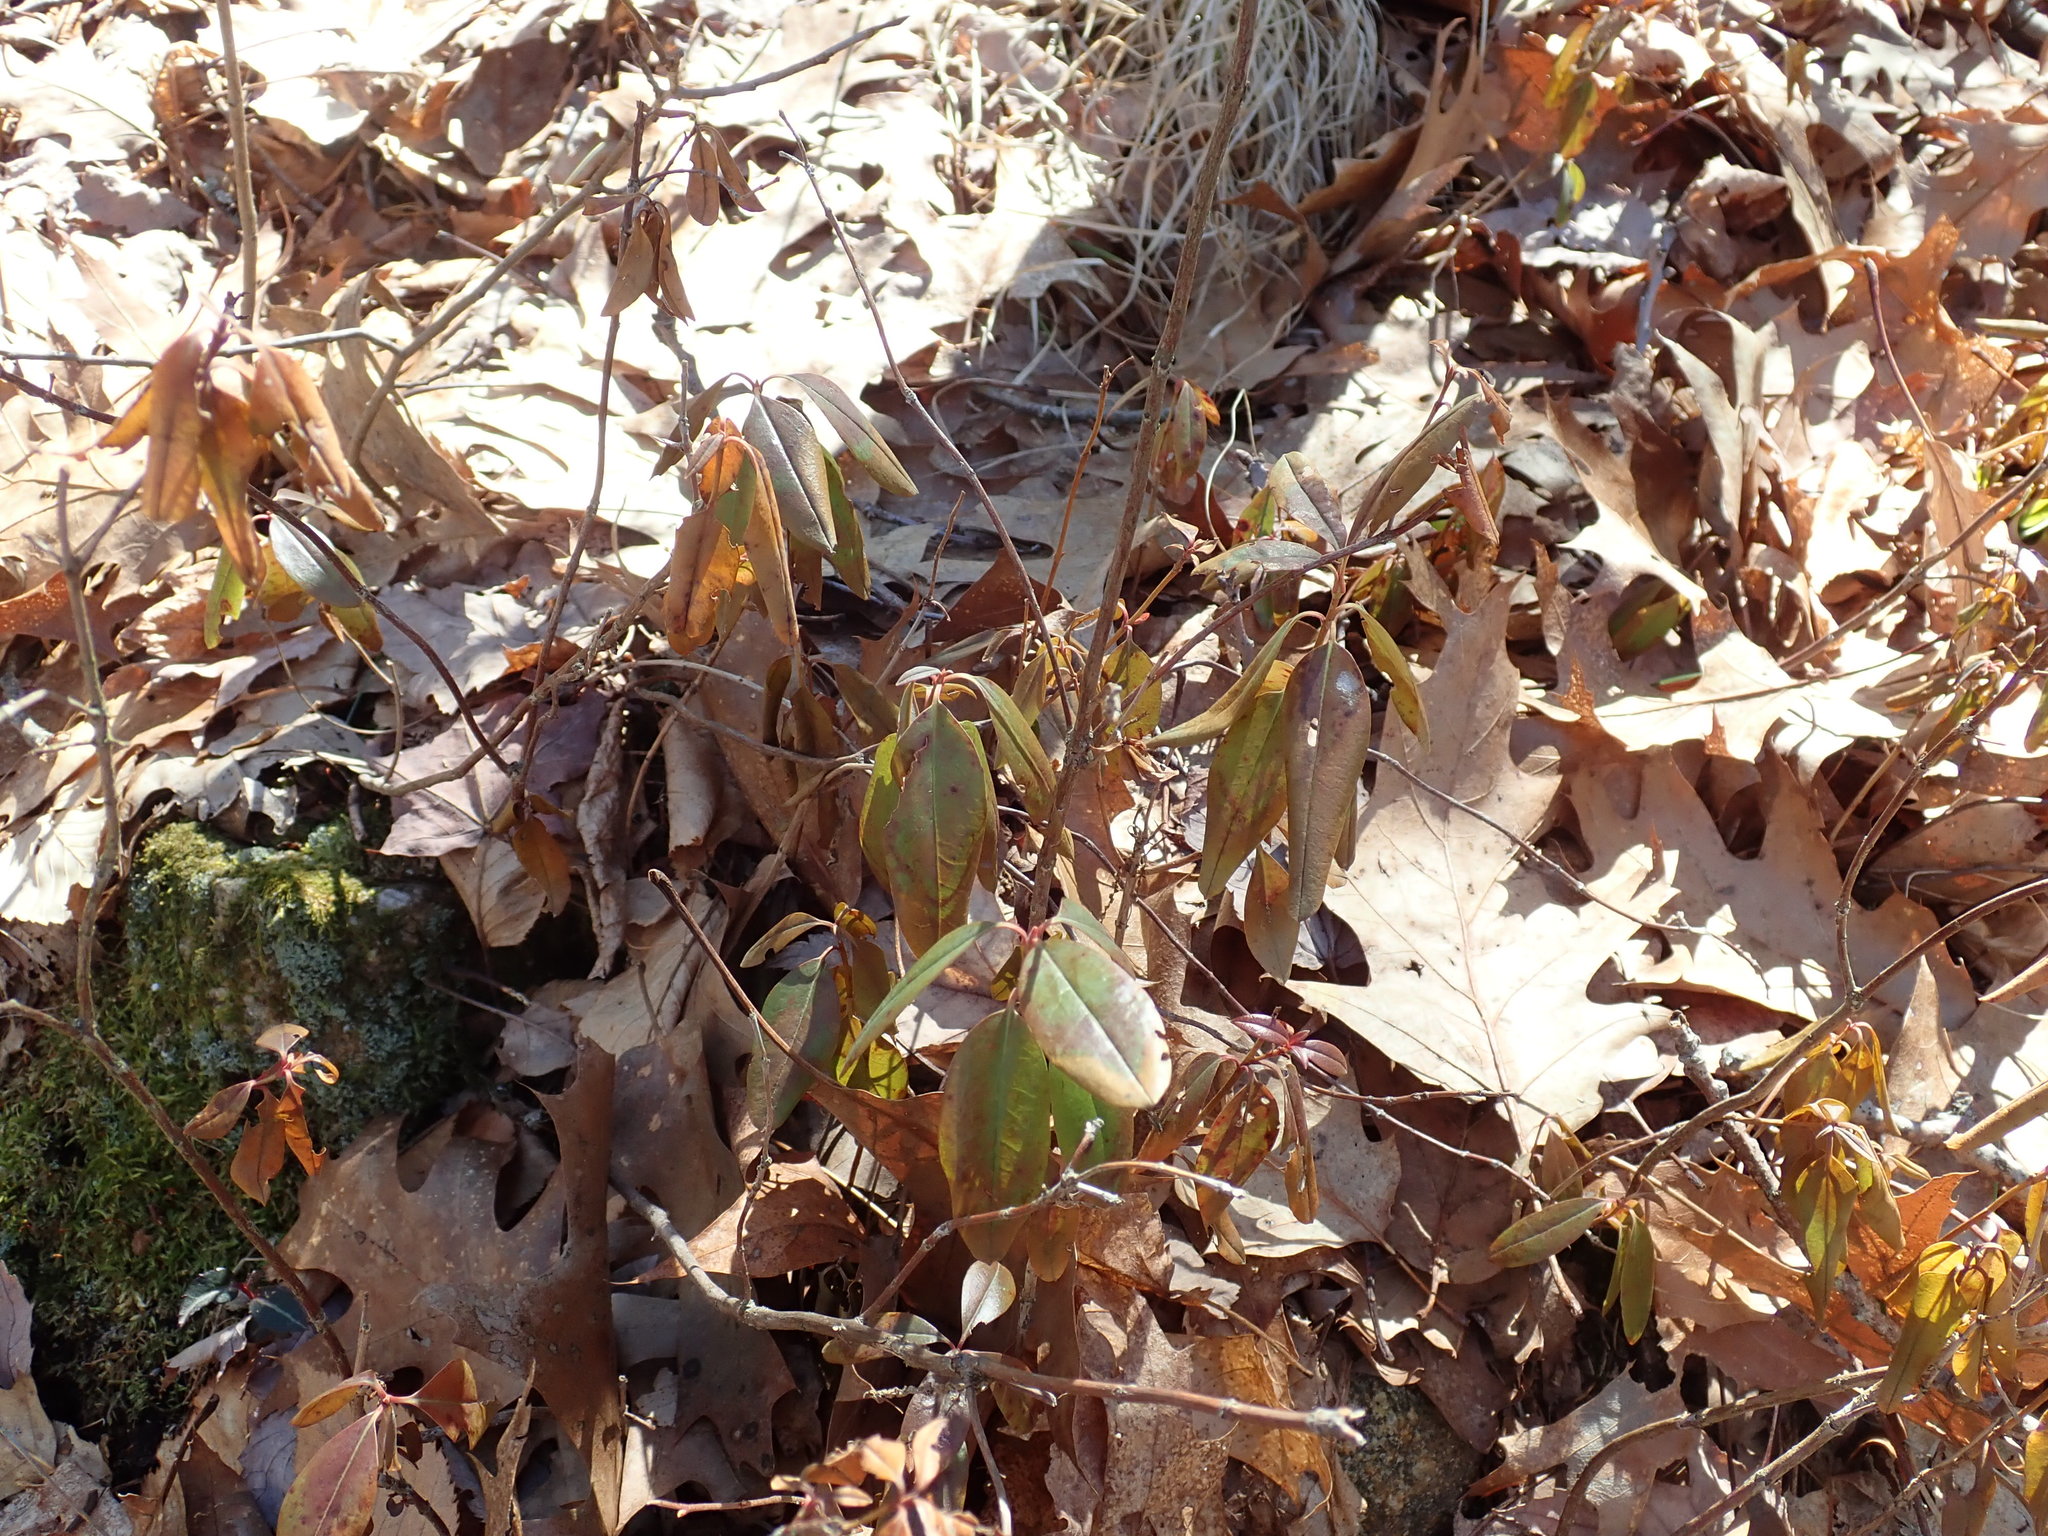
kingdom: Plantae
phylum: Tracheophyta
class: Magnoliopsida
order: Ericales
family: Ericaceae
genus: Kalmia
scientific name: Kalmia angustifolia
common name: Sheep-laurel
